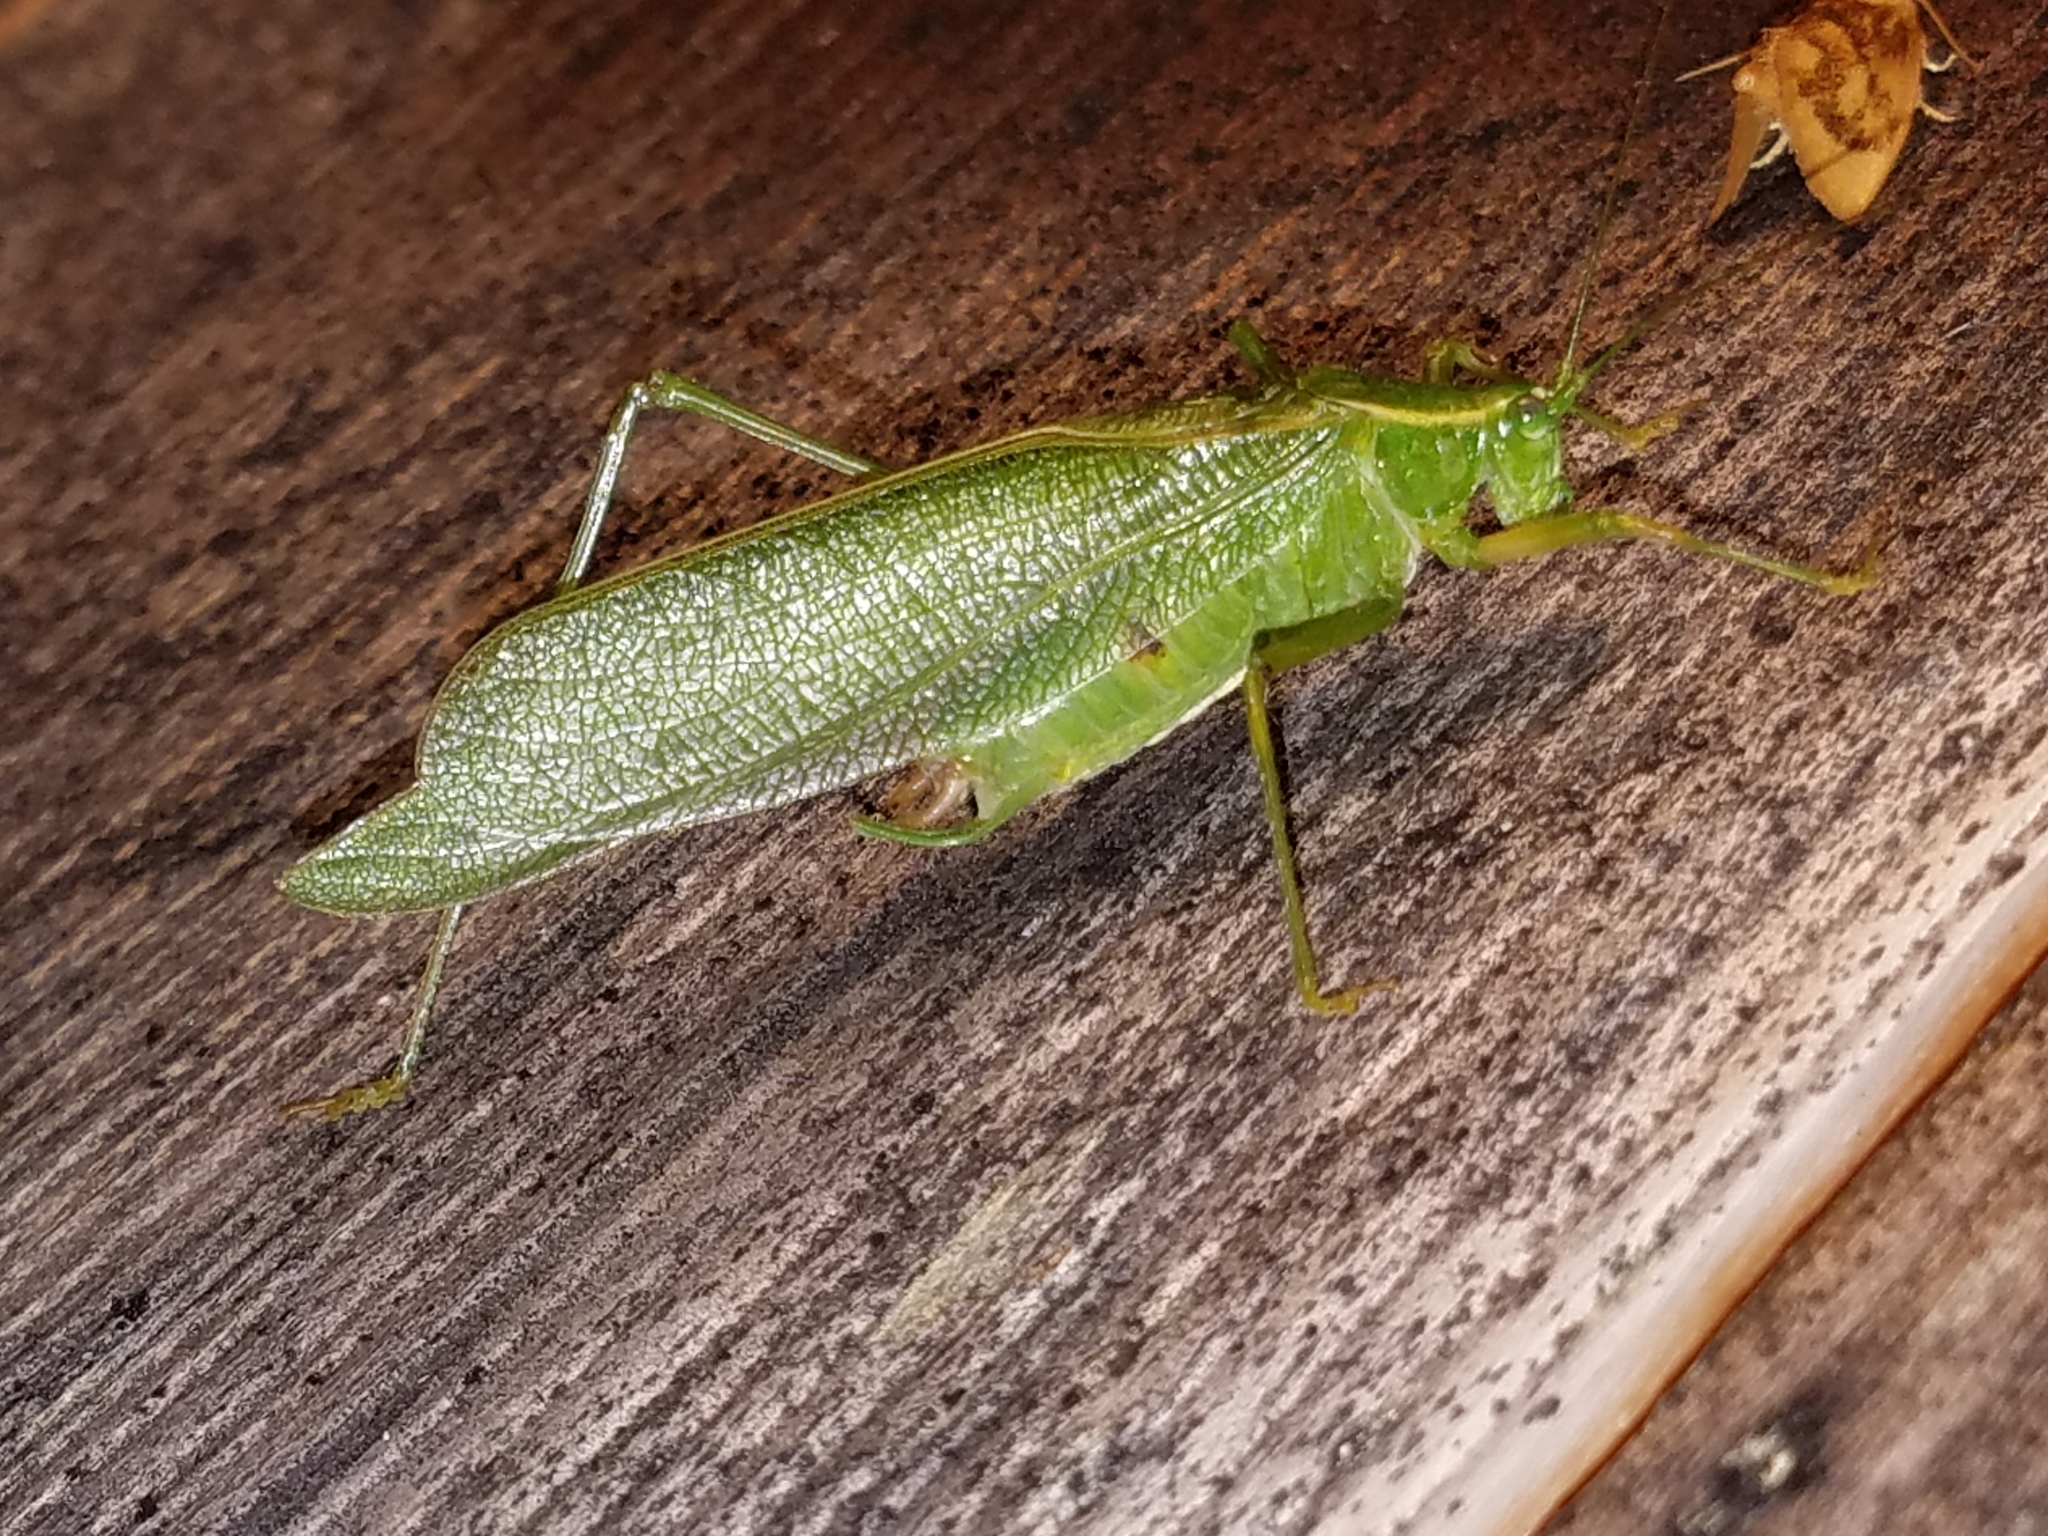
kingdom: Animalia
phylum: Arthropoda
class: Insecta
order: Orthoptera
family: Tettigoniidae
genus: Scudderia
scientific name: Scudderia septentrionalis
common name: Northern bush-katydid
